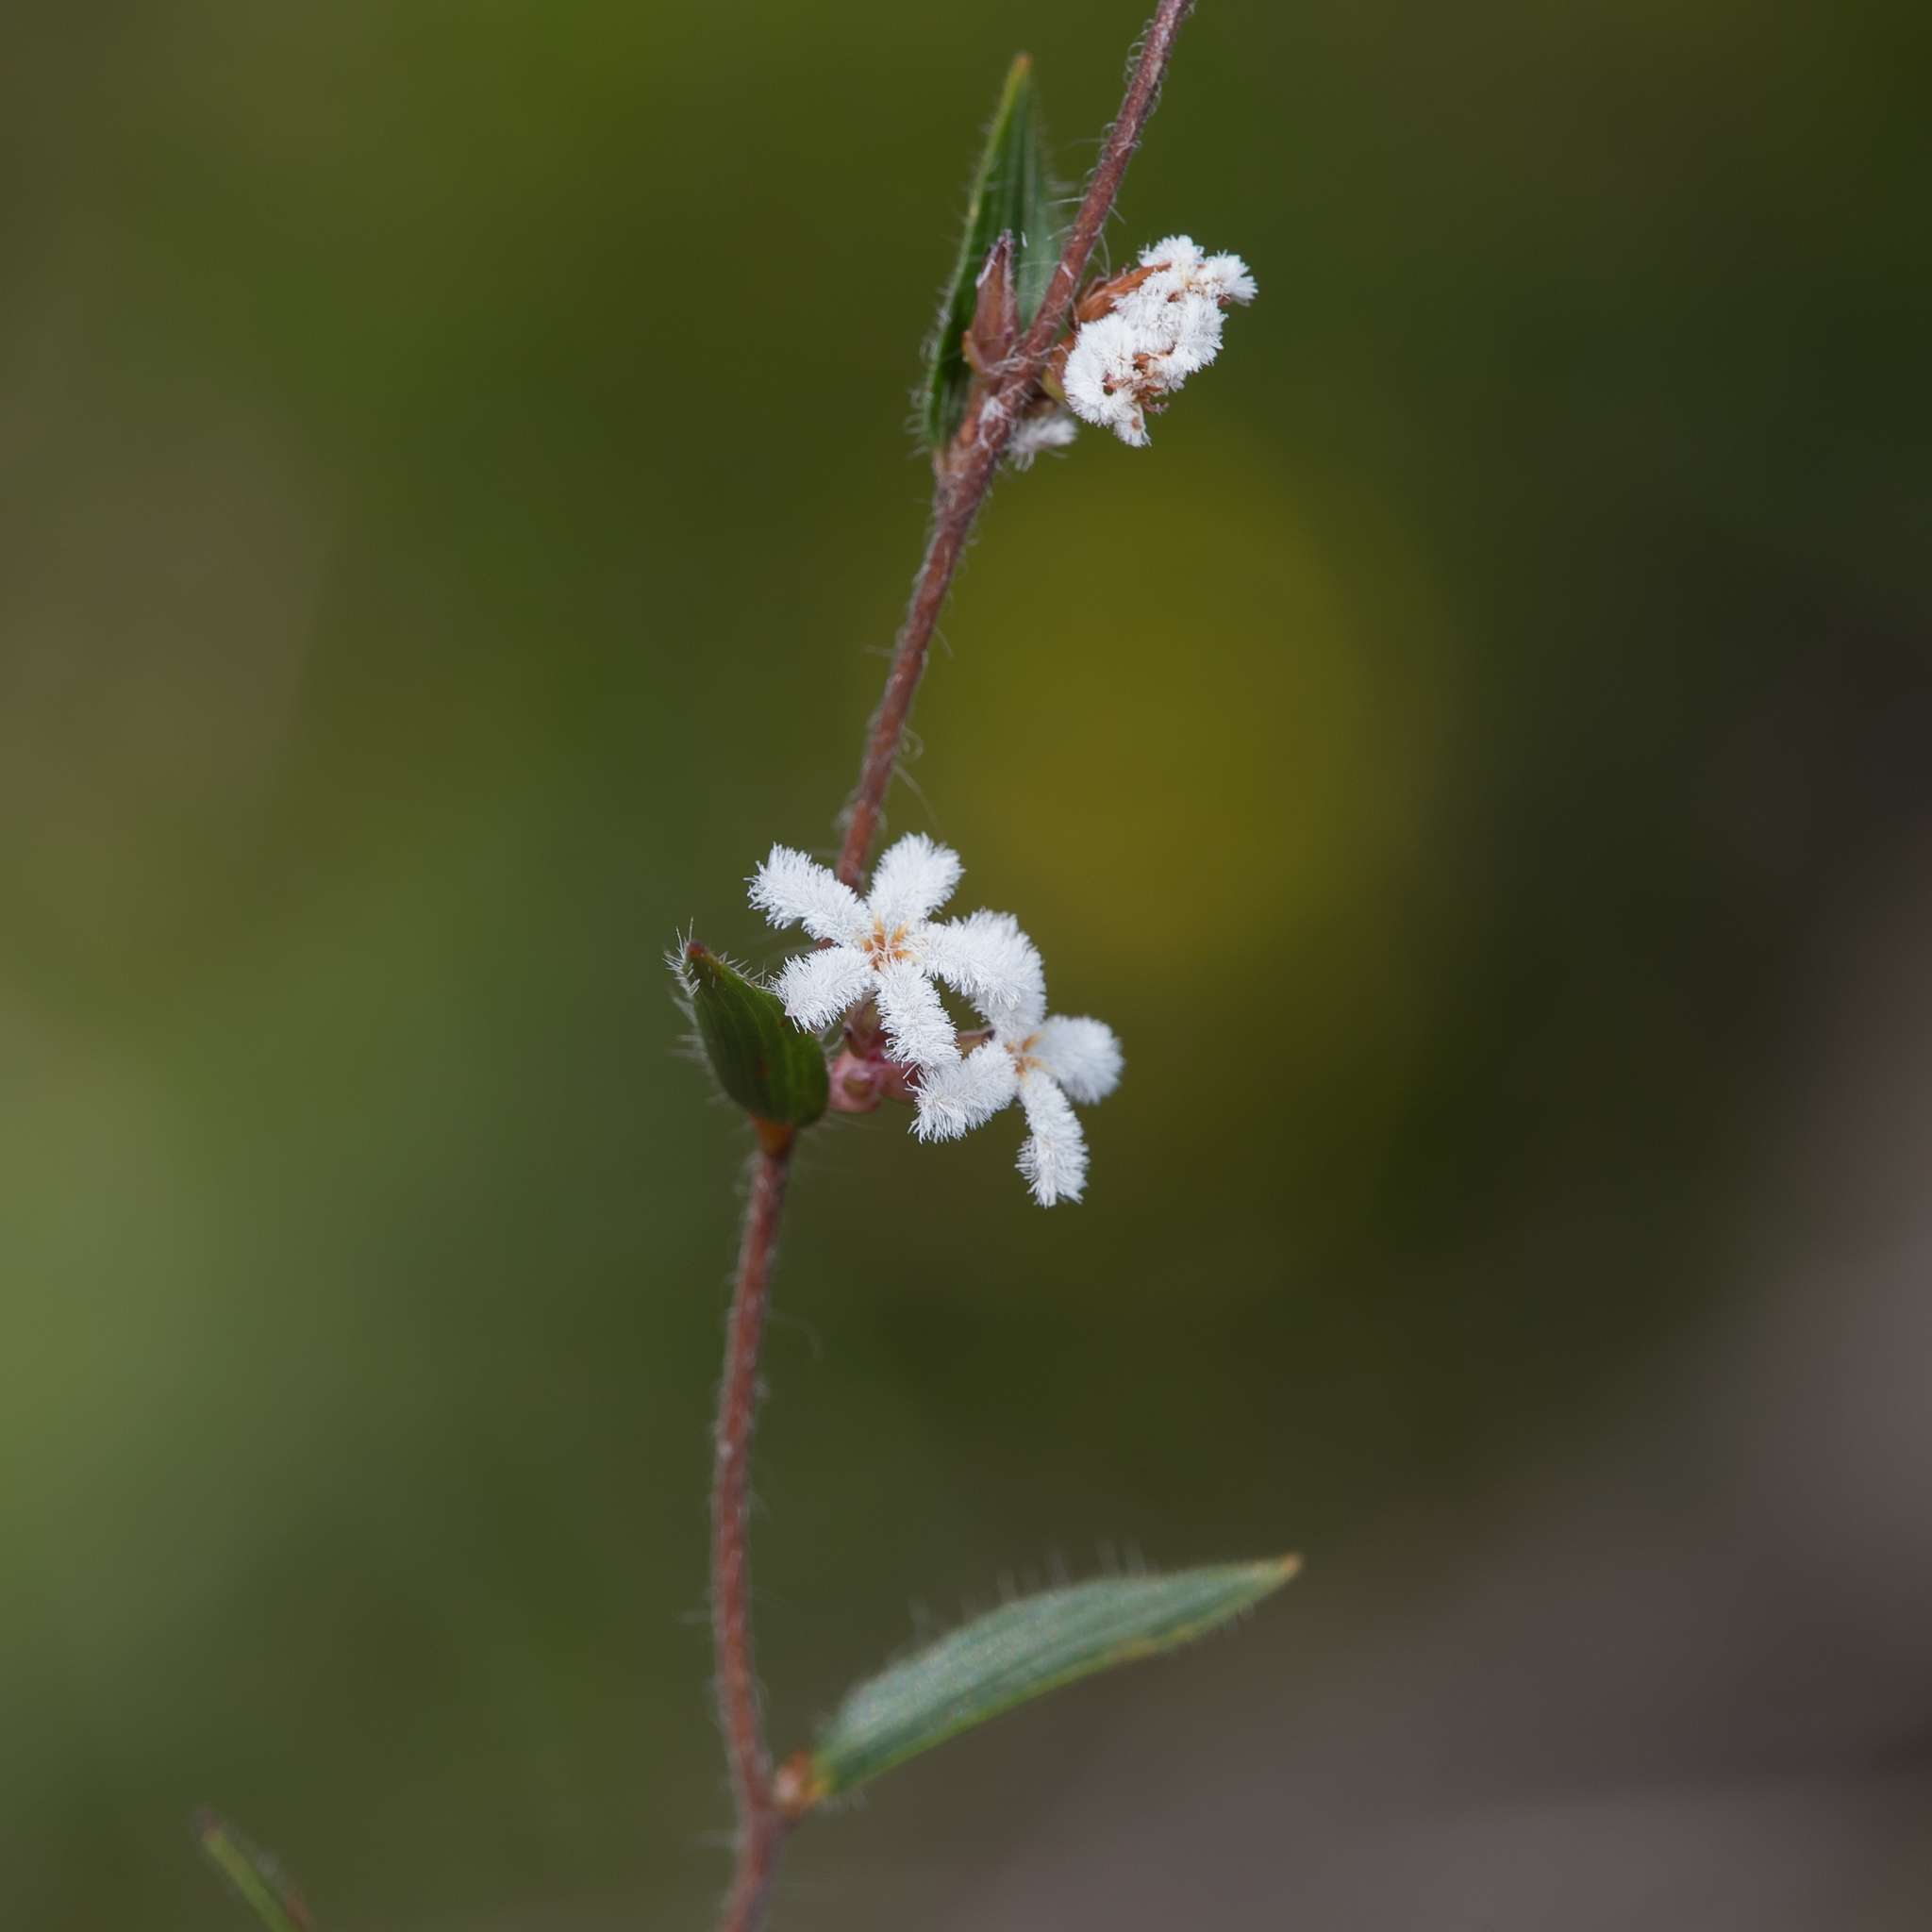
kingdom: Plantae
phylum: Tracheophyta
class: Magnoliopsida
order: Ericales
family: Ericaceae
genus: Leucopogon
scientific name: Leucopogon concurvus
